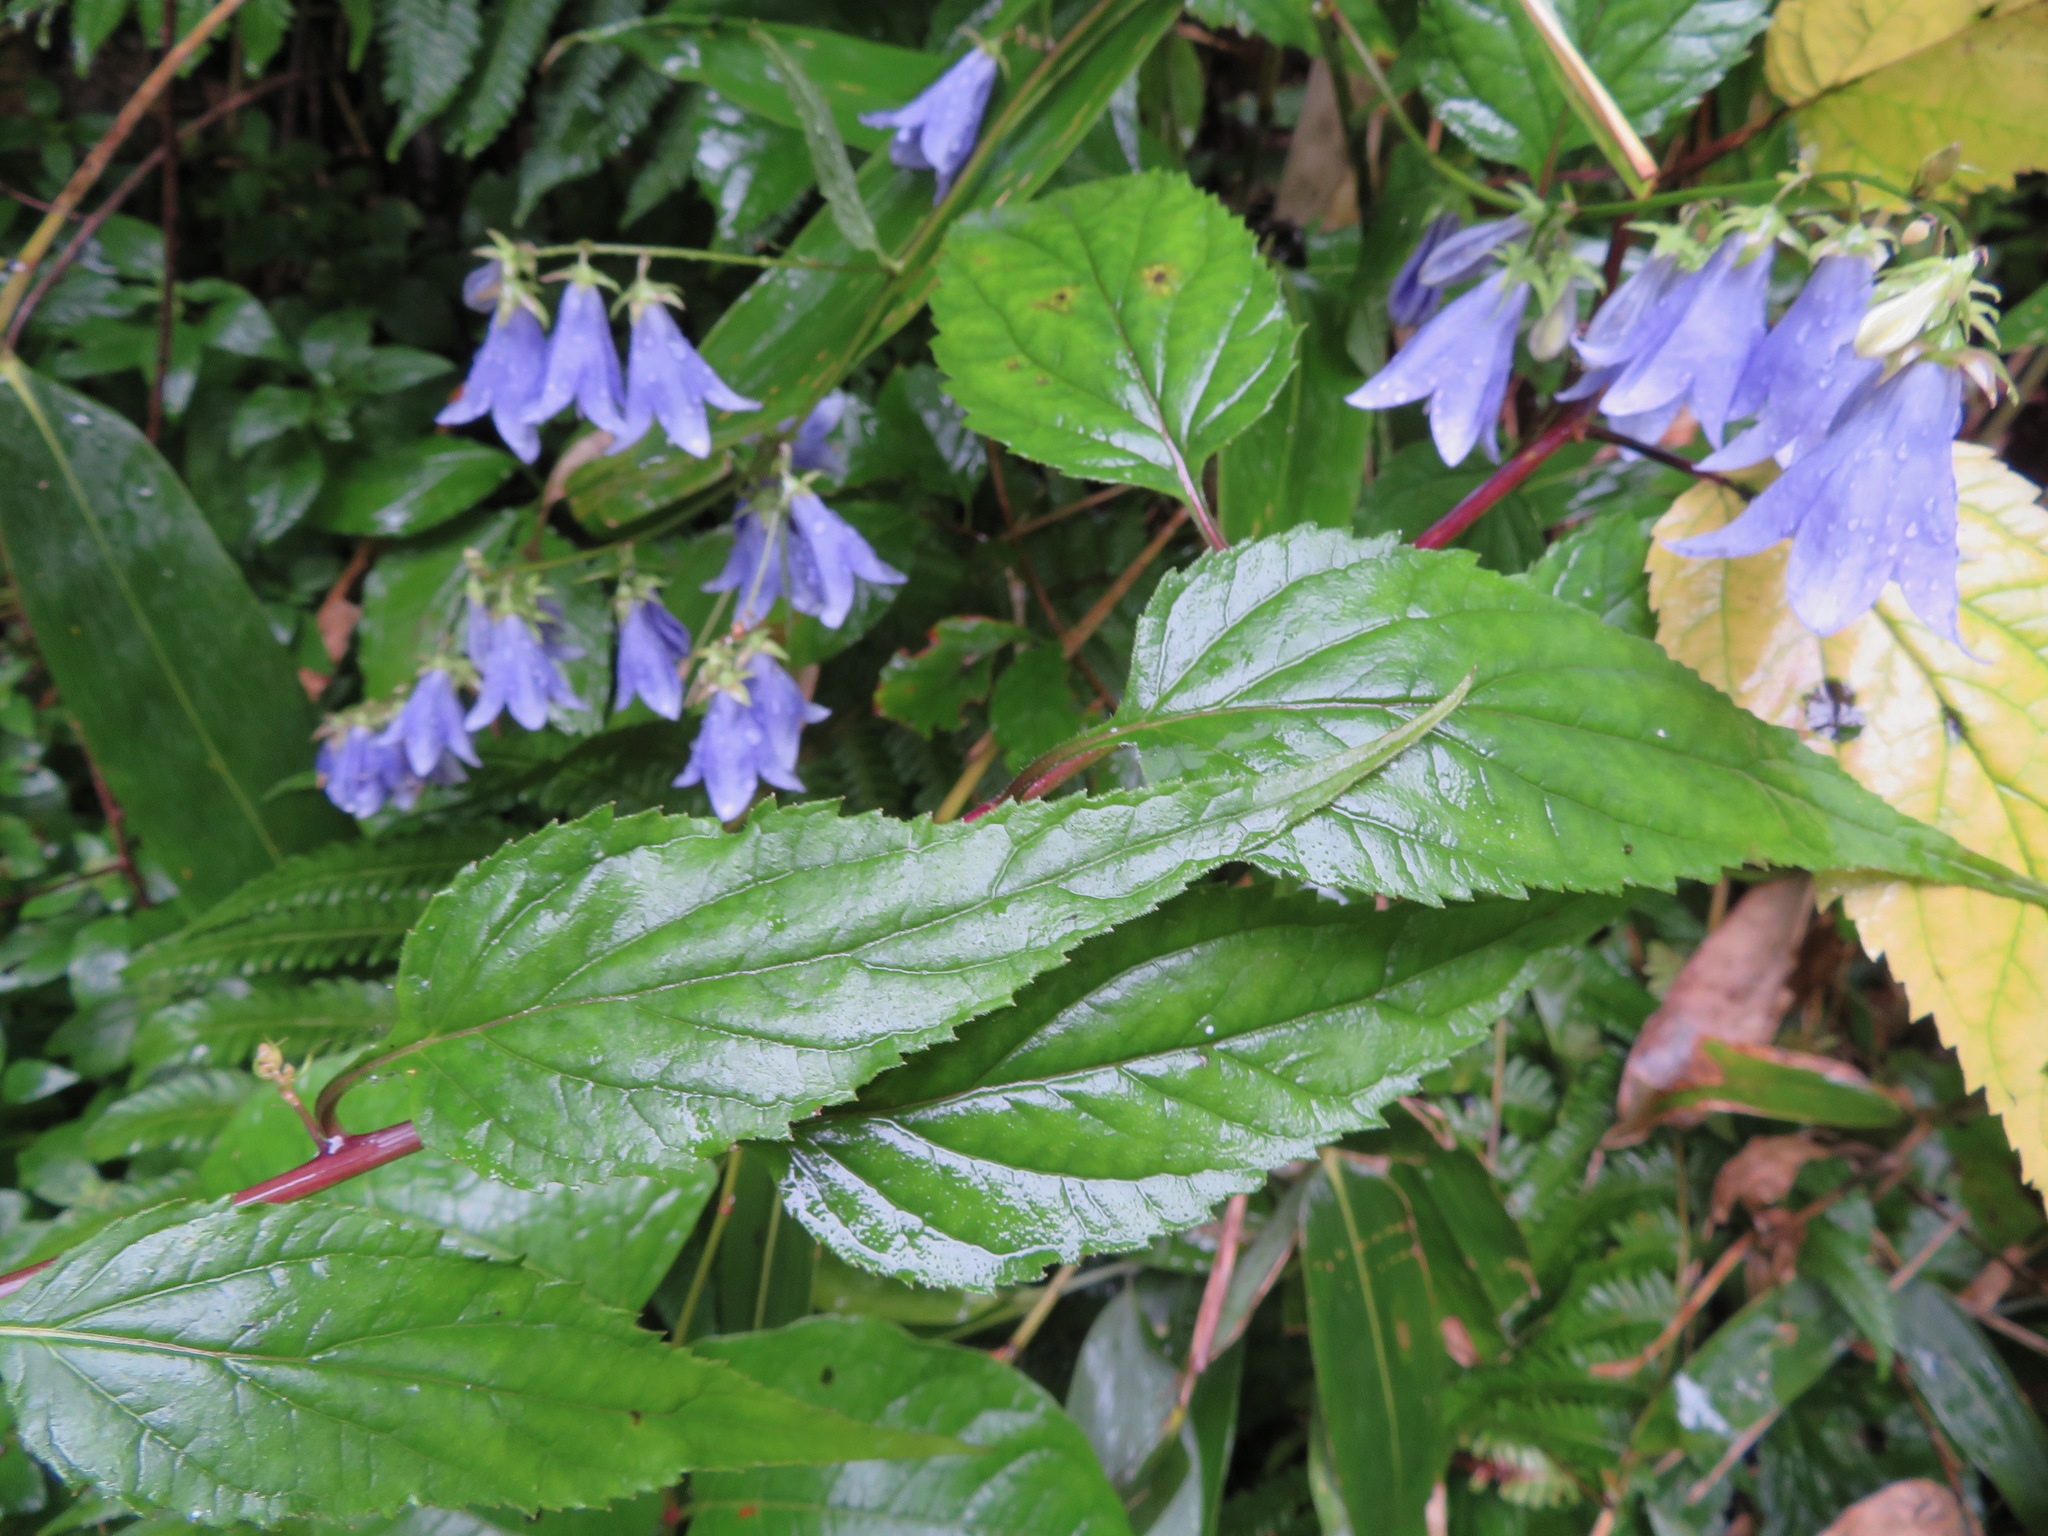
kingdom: Plantae
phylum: Tracheophyta
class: Magnoliopsida
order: Asterales
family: Campanulaceae
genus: Adenophora
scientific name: Adenophora remotiflora
